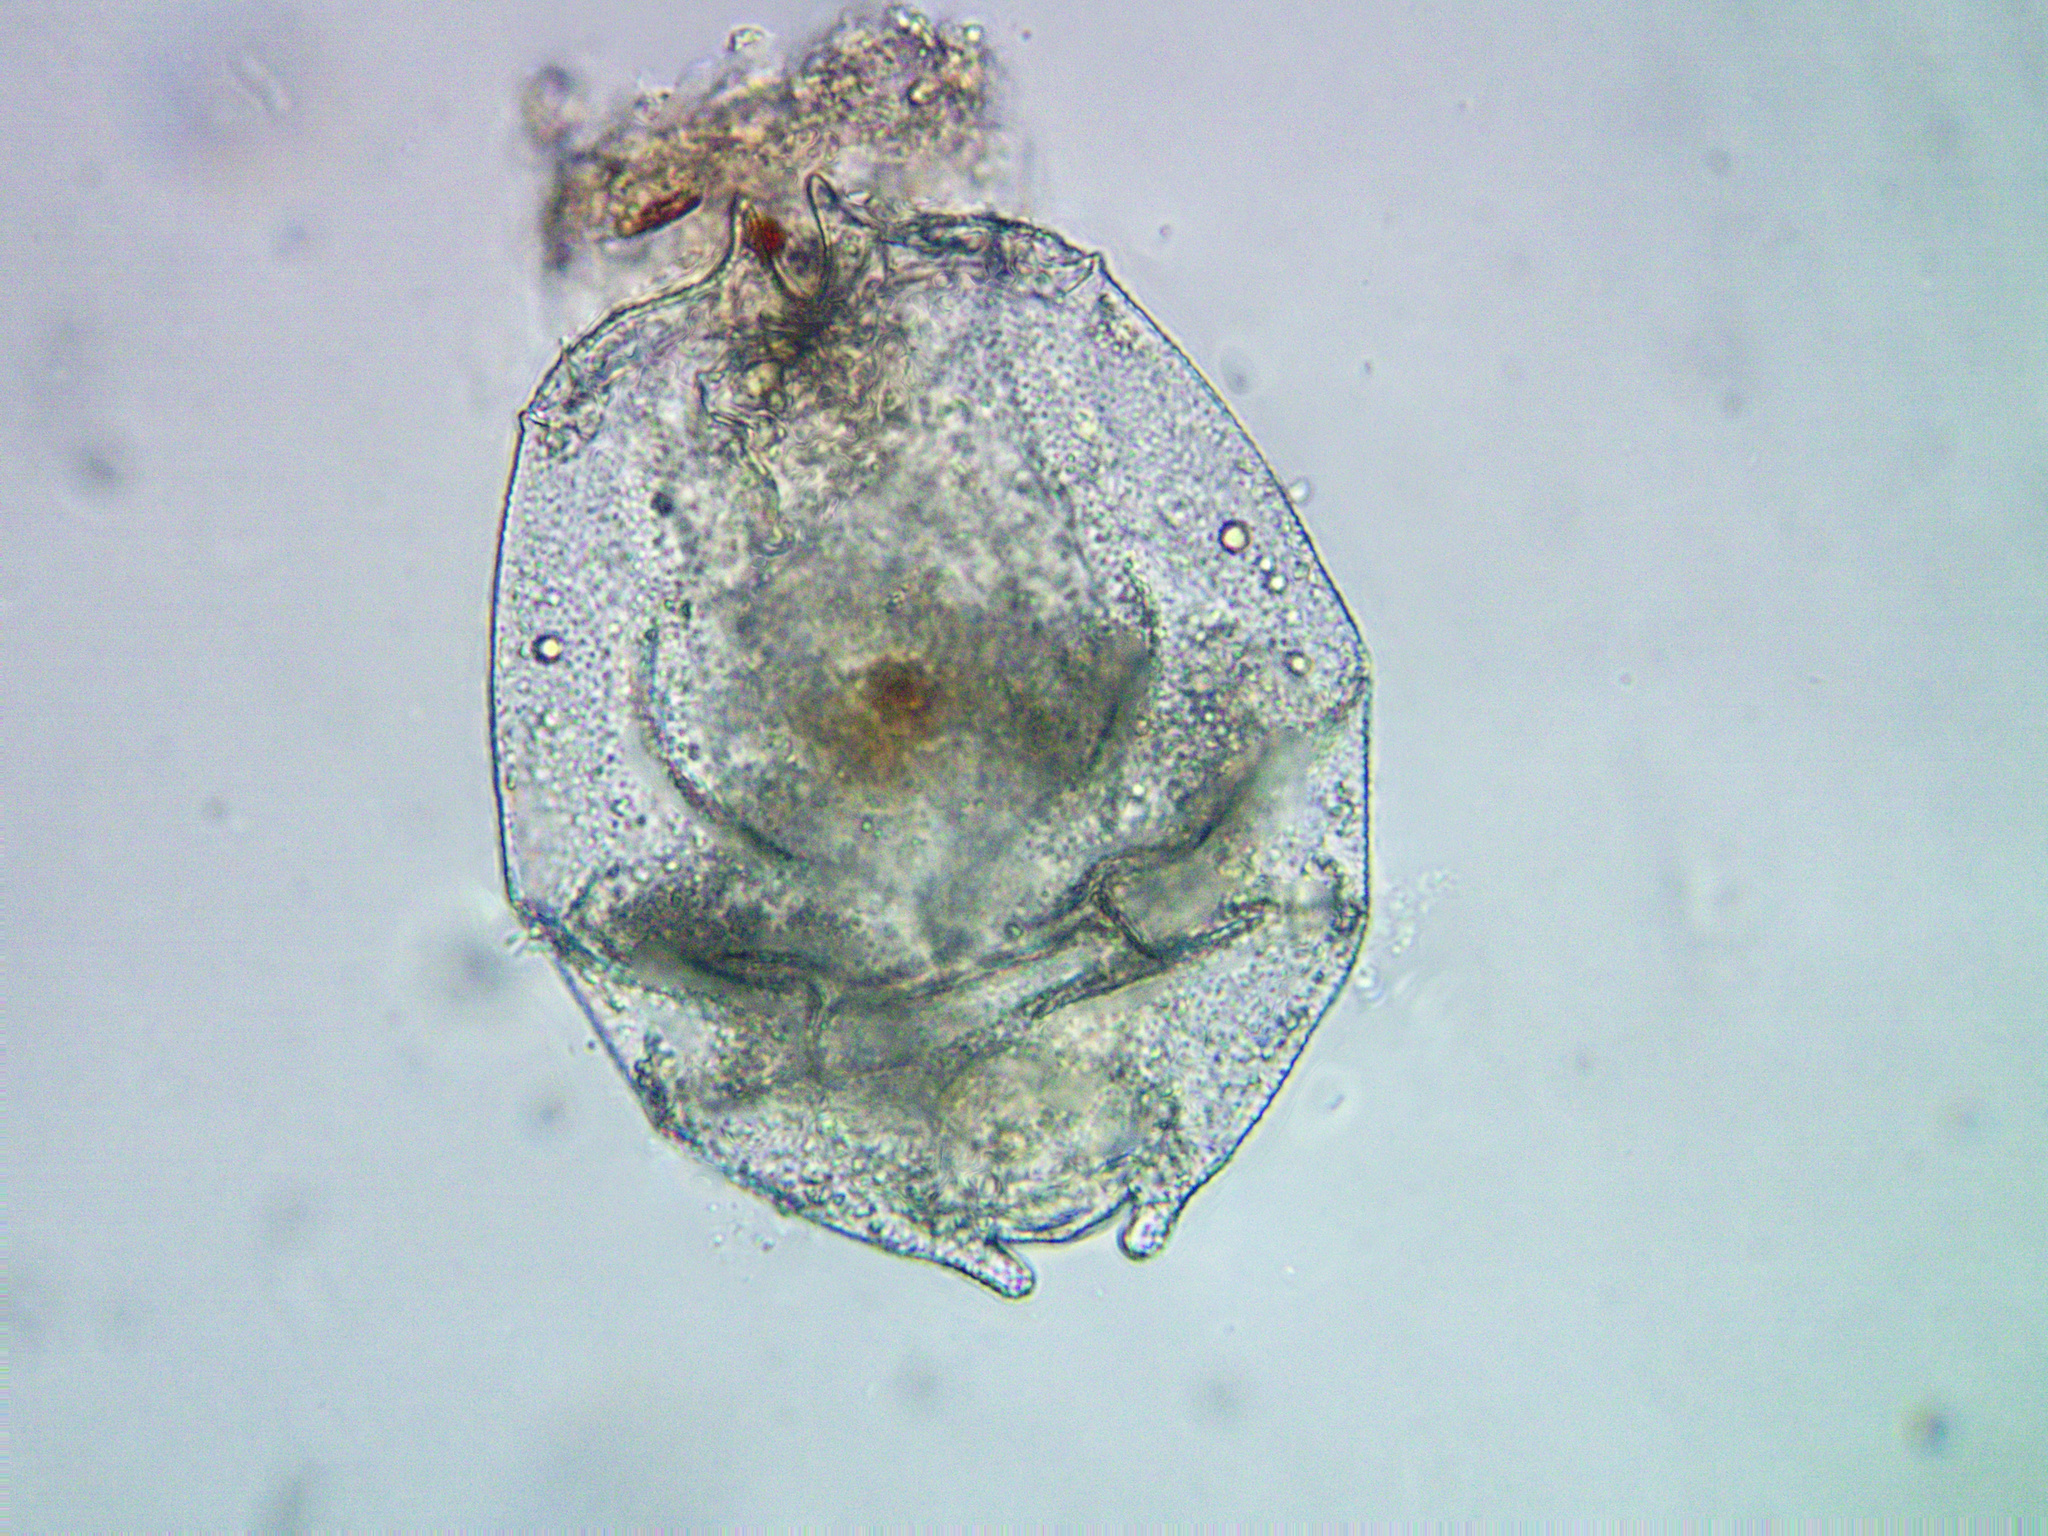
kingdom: Animalia
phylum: Rotifera
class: Eurotatoria
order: Ploima
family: Brachionidae
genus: Brachionus
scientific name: Brachionus angularis
